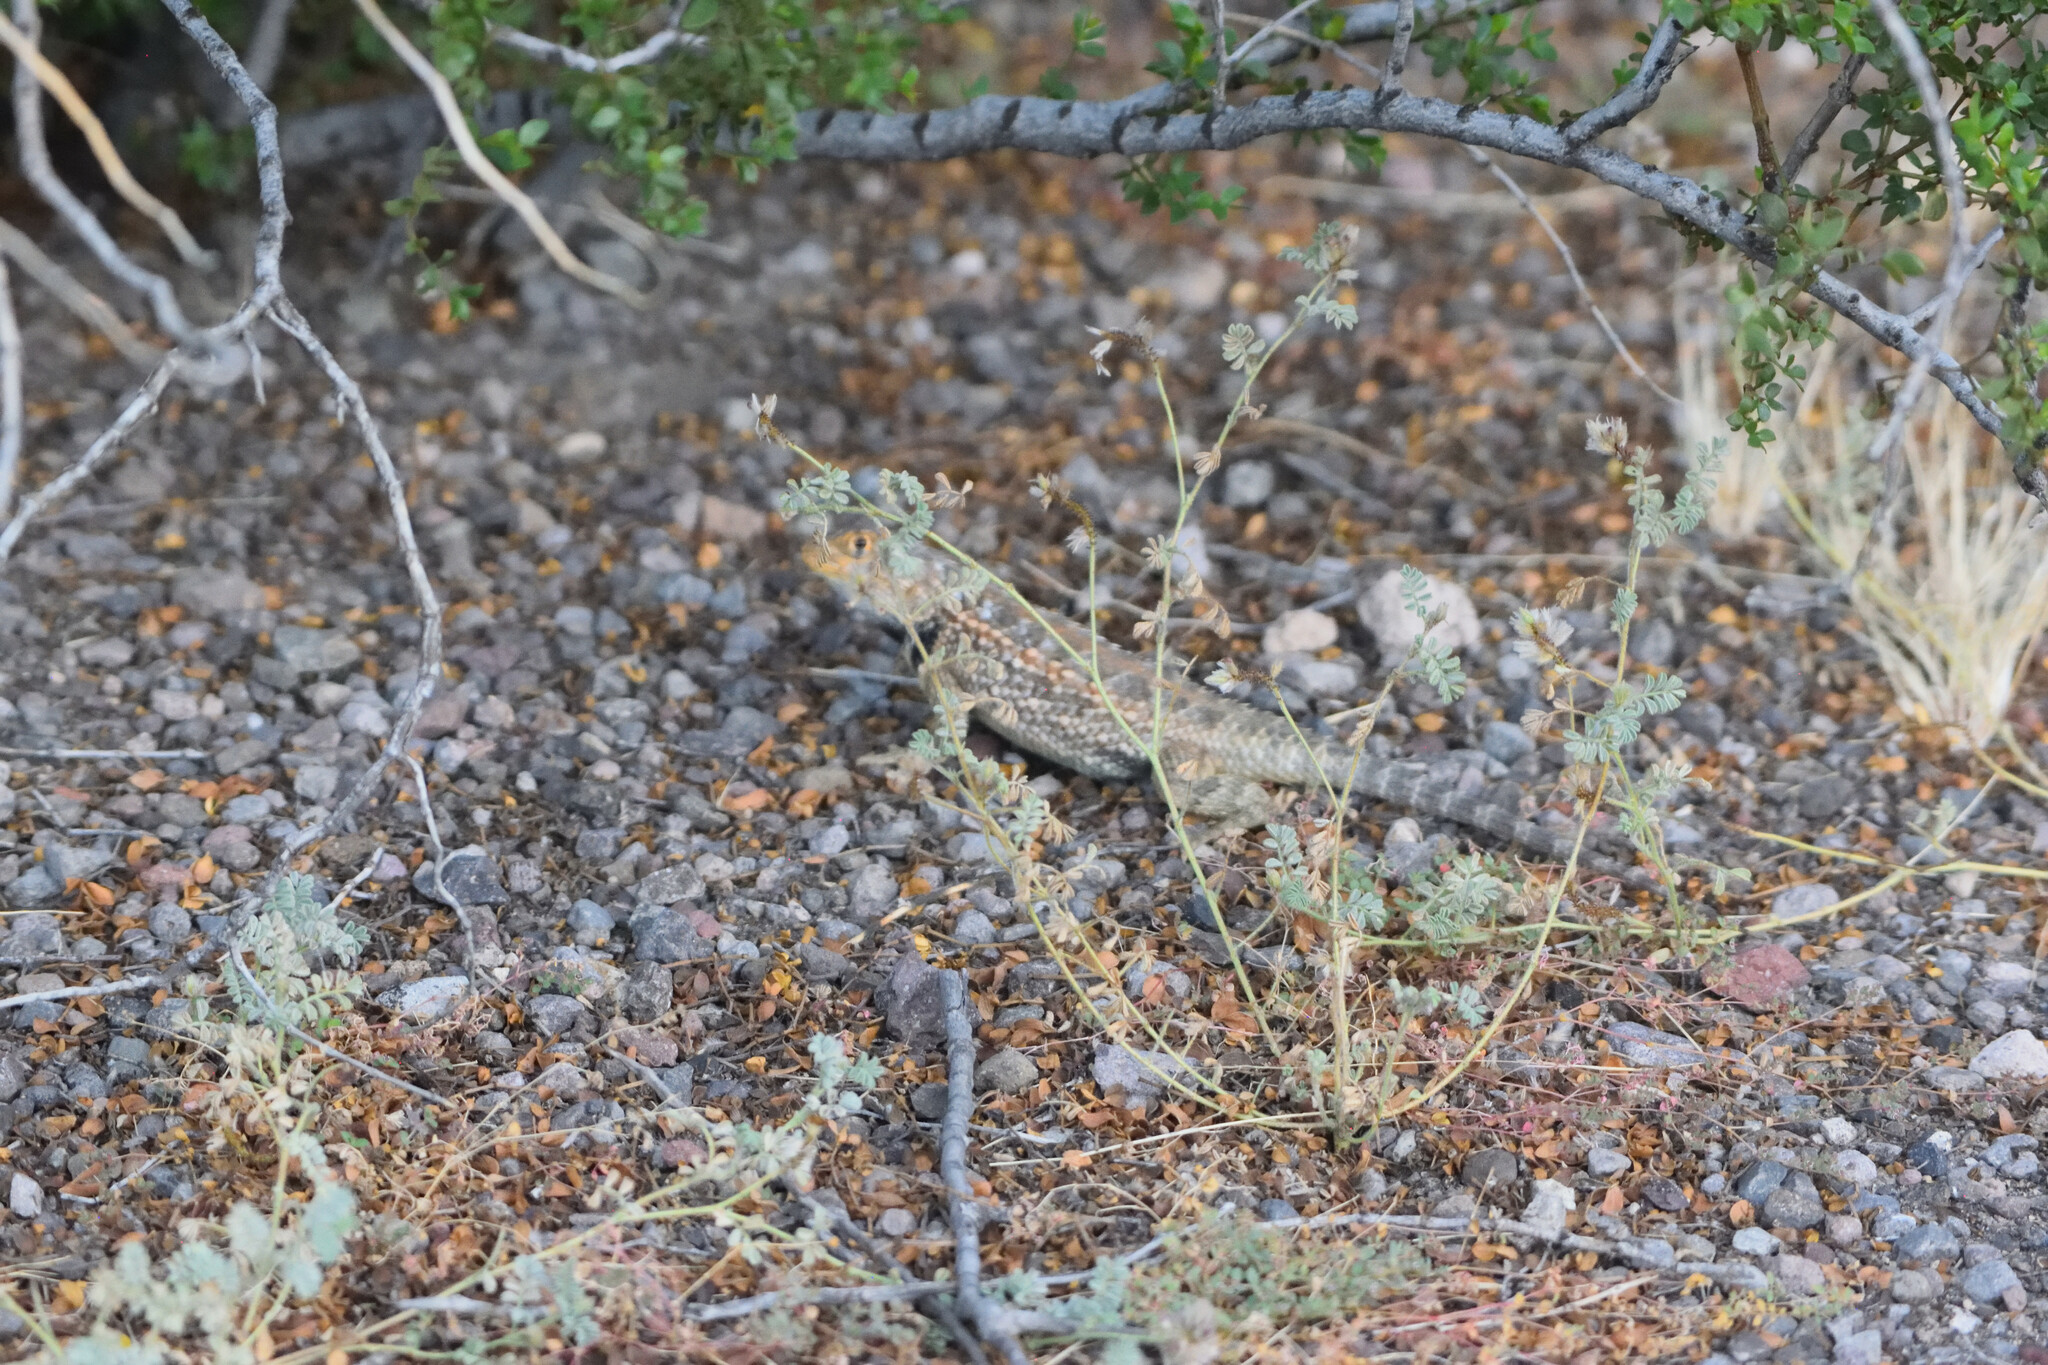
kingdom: Animalia
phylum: Chordata
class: Squamata
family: Phrynosomatidae
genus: Sceloporus
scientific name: Sceloporus zosteromus
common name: Baja spiny lizard
